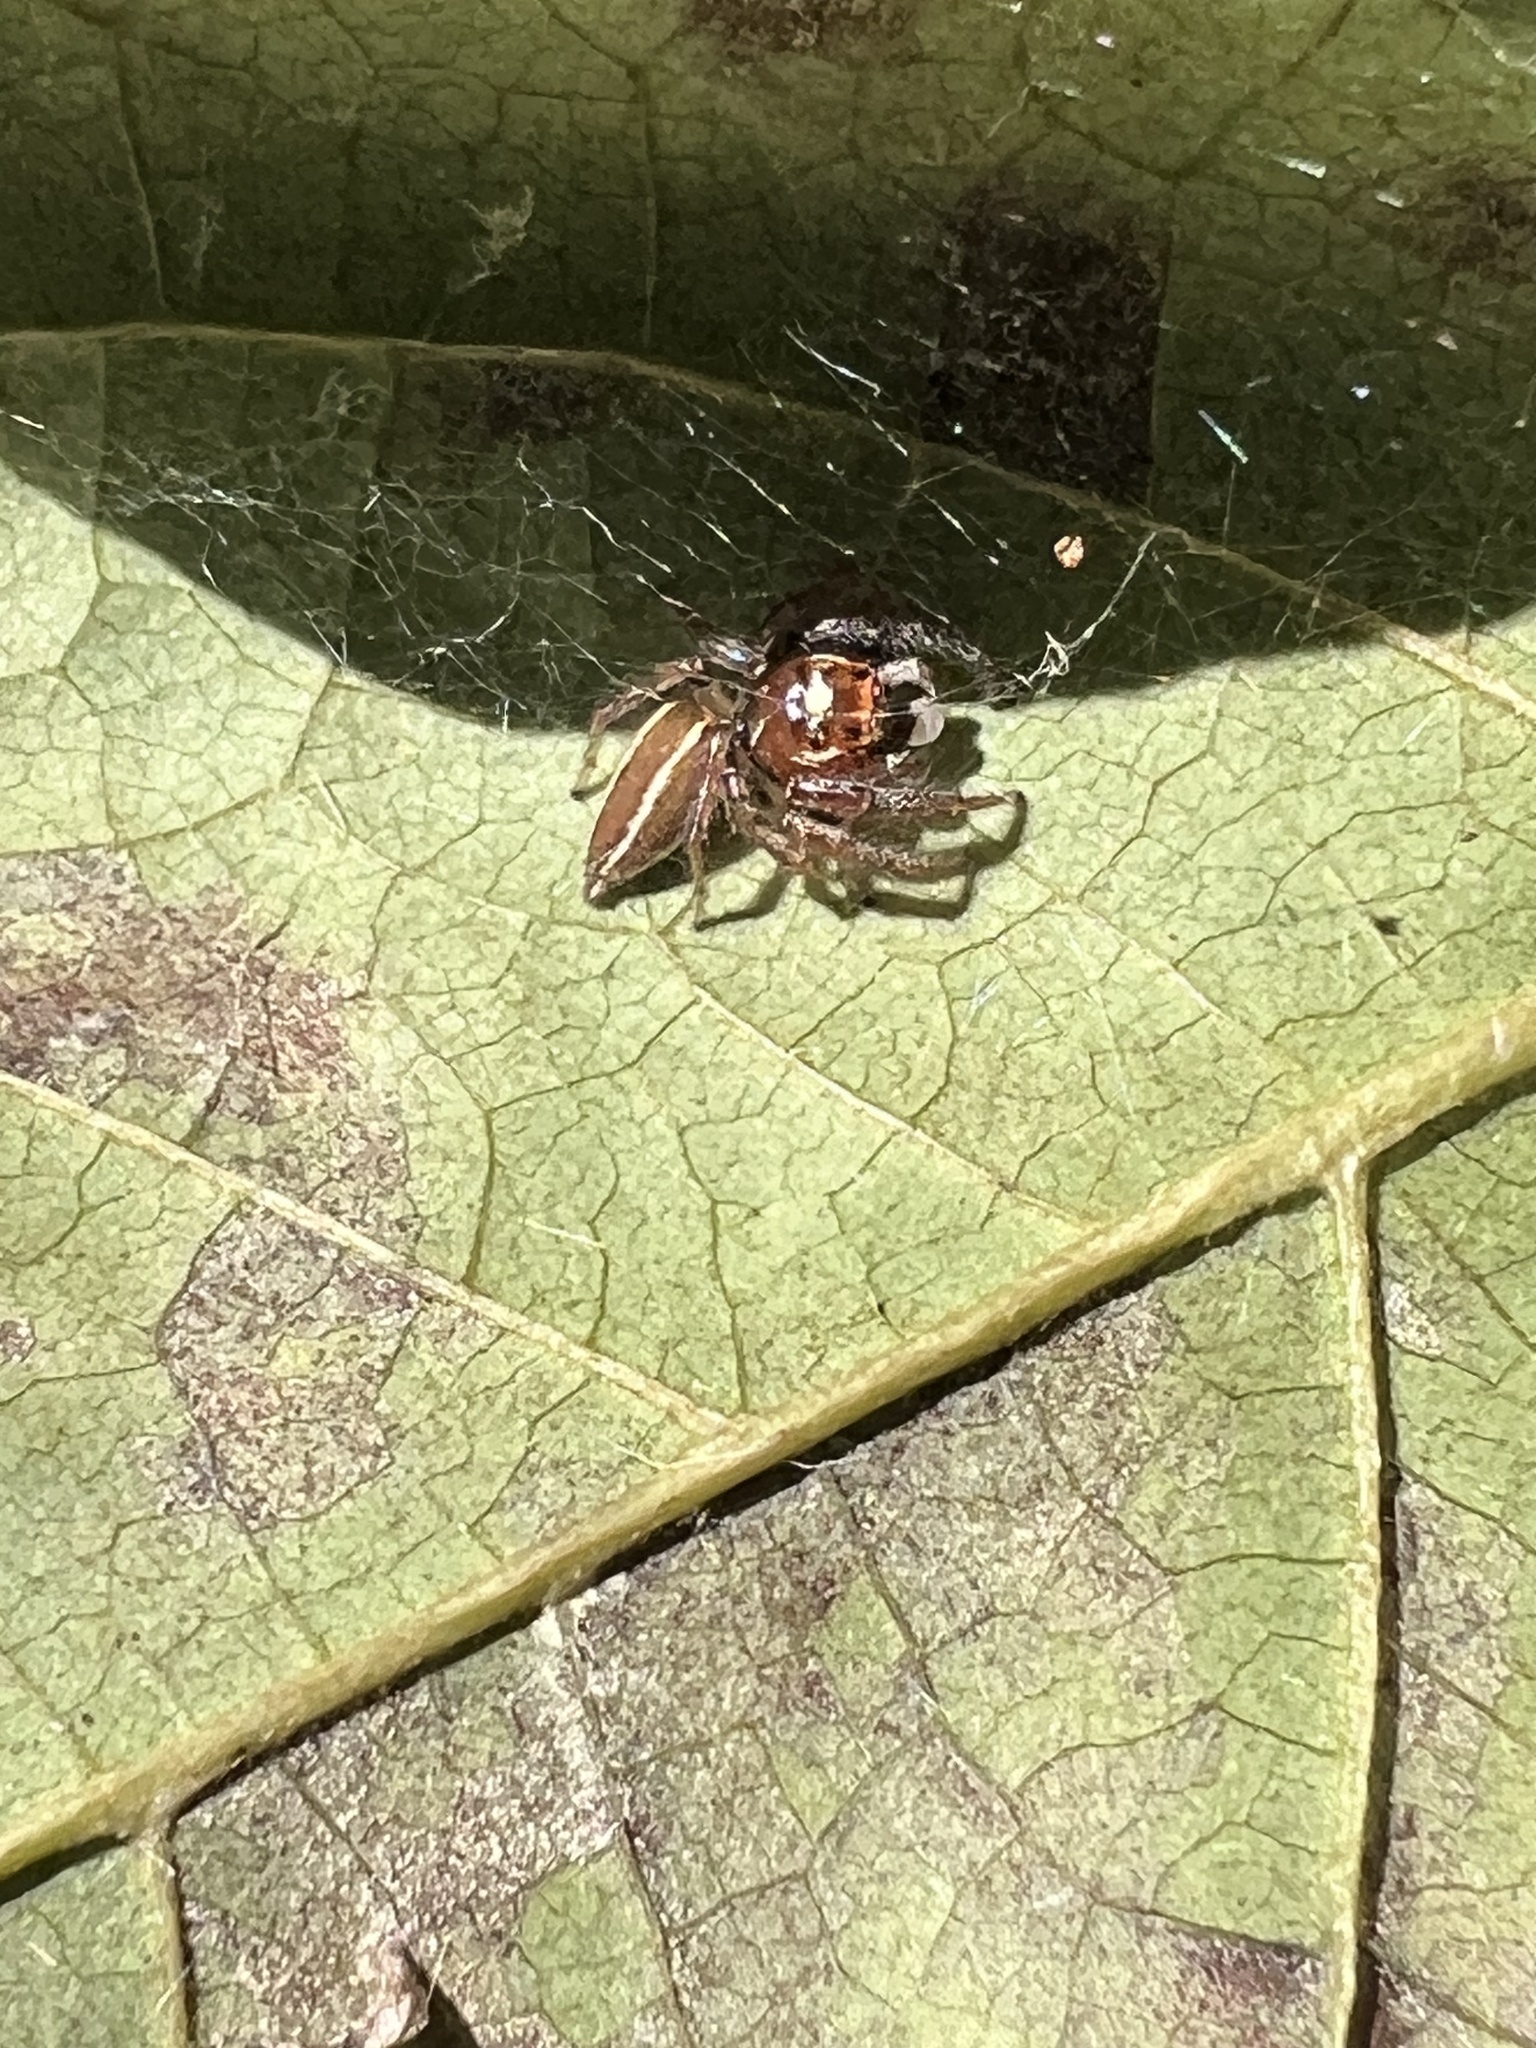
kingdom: Animalia
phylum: Arthropoda
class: Arachnida
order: Araneae
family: Salticidae
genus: Colonus
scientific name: Colonus sylvanus
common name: Jumping spiders
